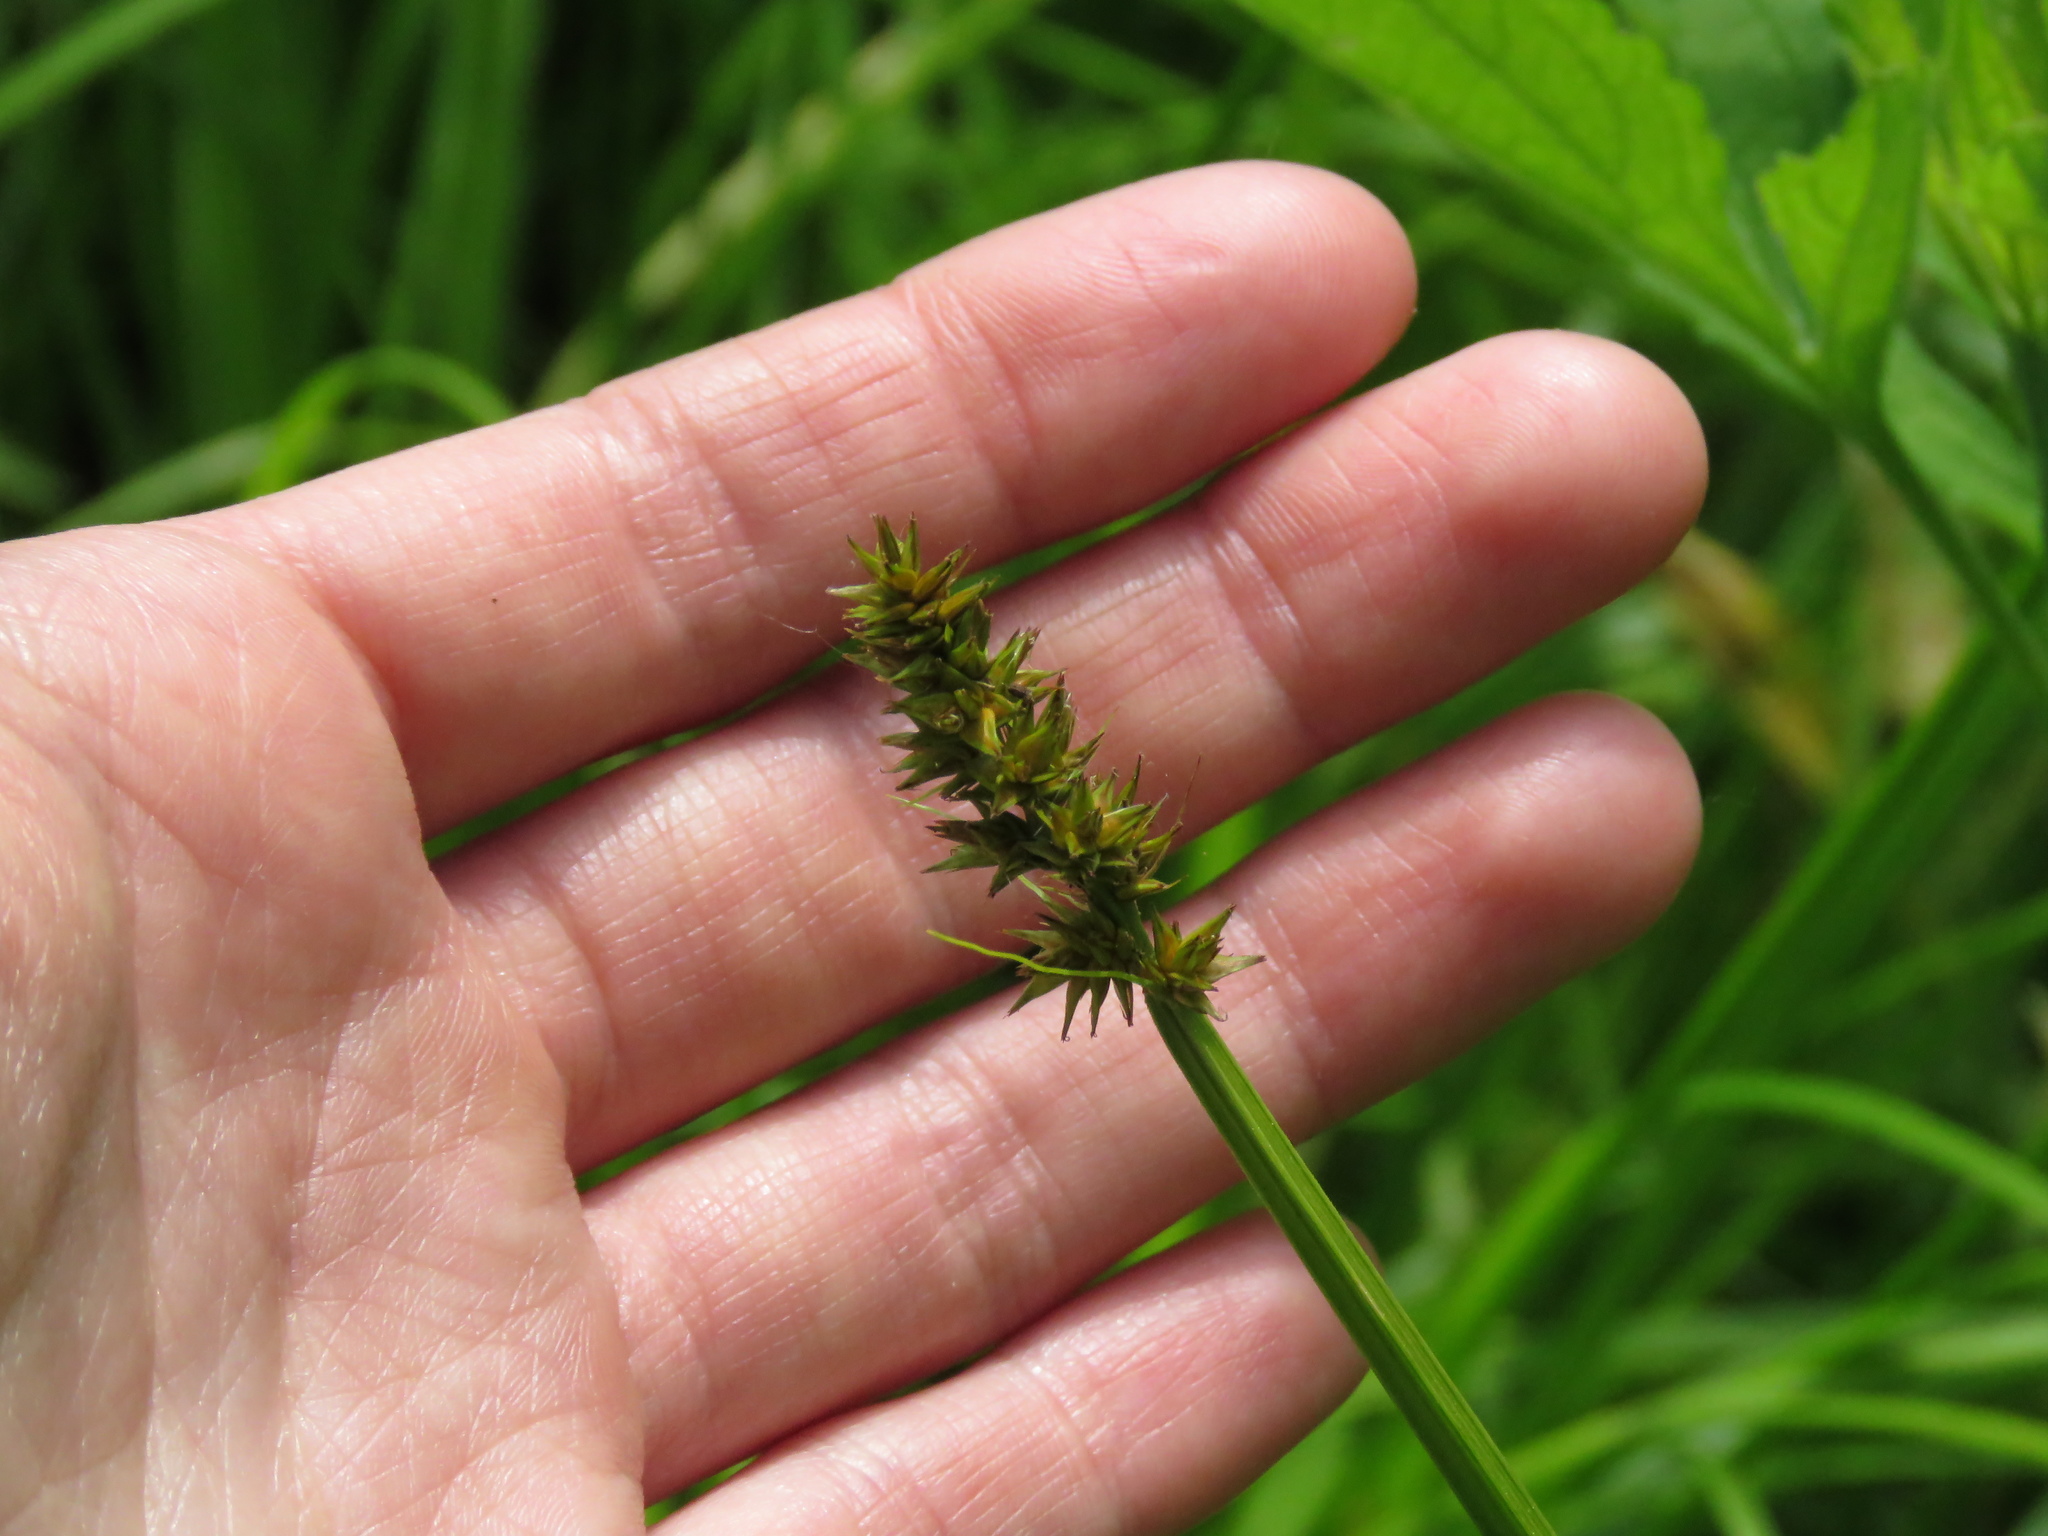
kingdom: Plantae
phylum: Tracheophyta
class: Liliopsida
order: Poales
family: Cyperaceae
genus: Carex
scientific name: Carex stipata
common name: Awl-fruited sedge
